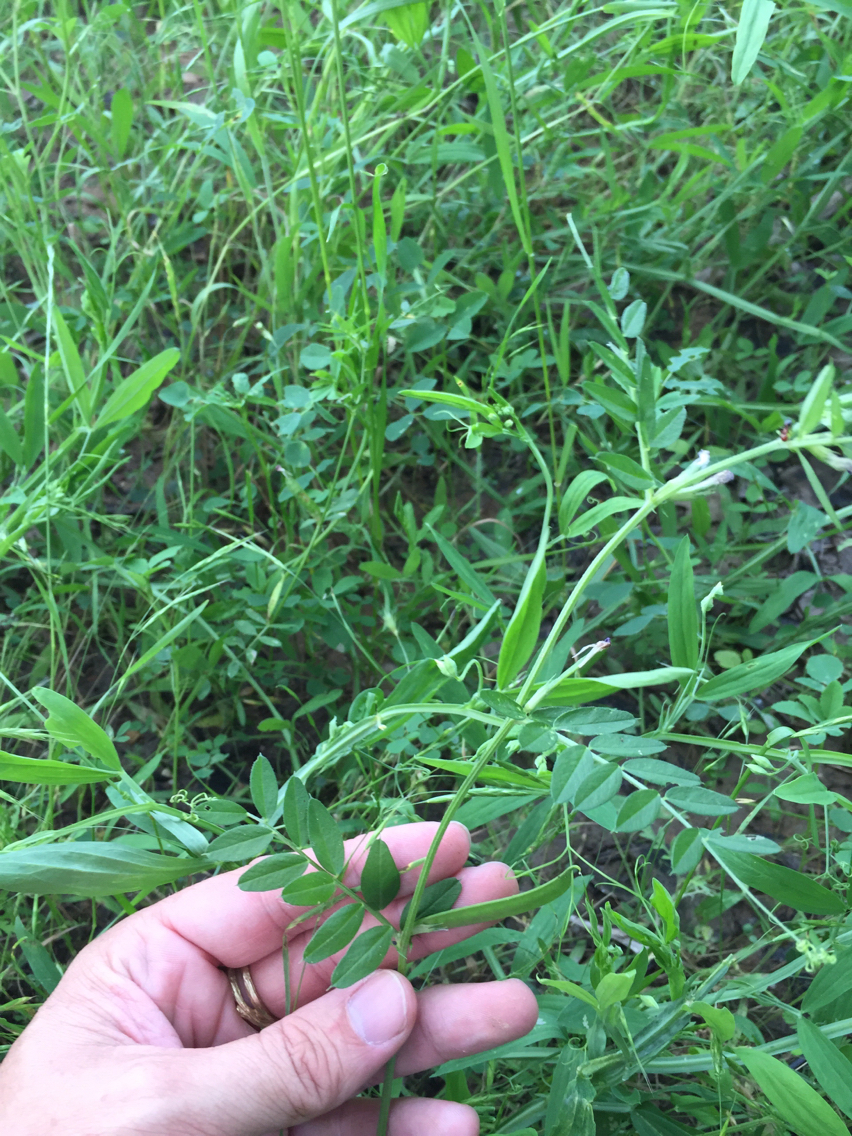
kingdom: Plantae
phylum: Tracheophyta
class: Magnoliopsida
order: Fabales
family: Fabaceae
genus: Vicia
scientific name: Vicia sativa
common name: Garden vetch
